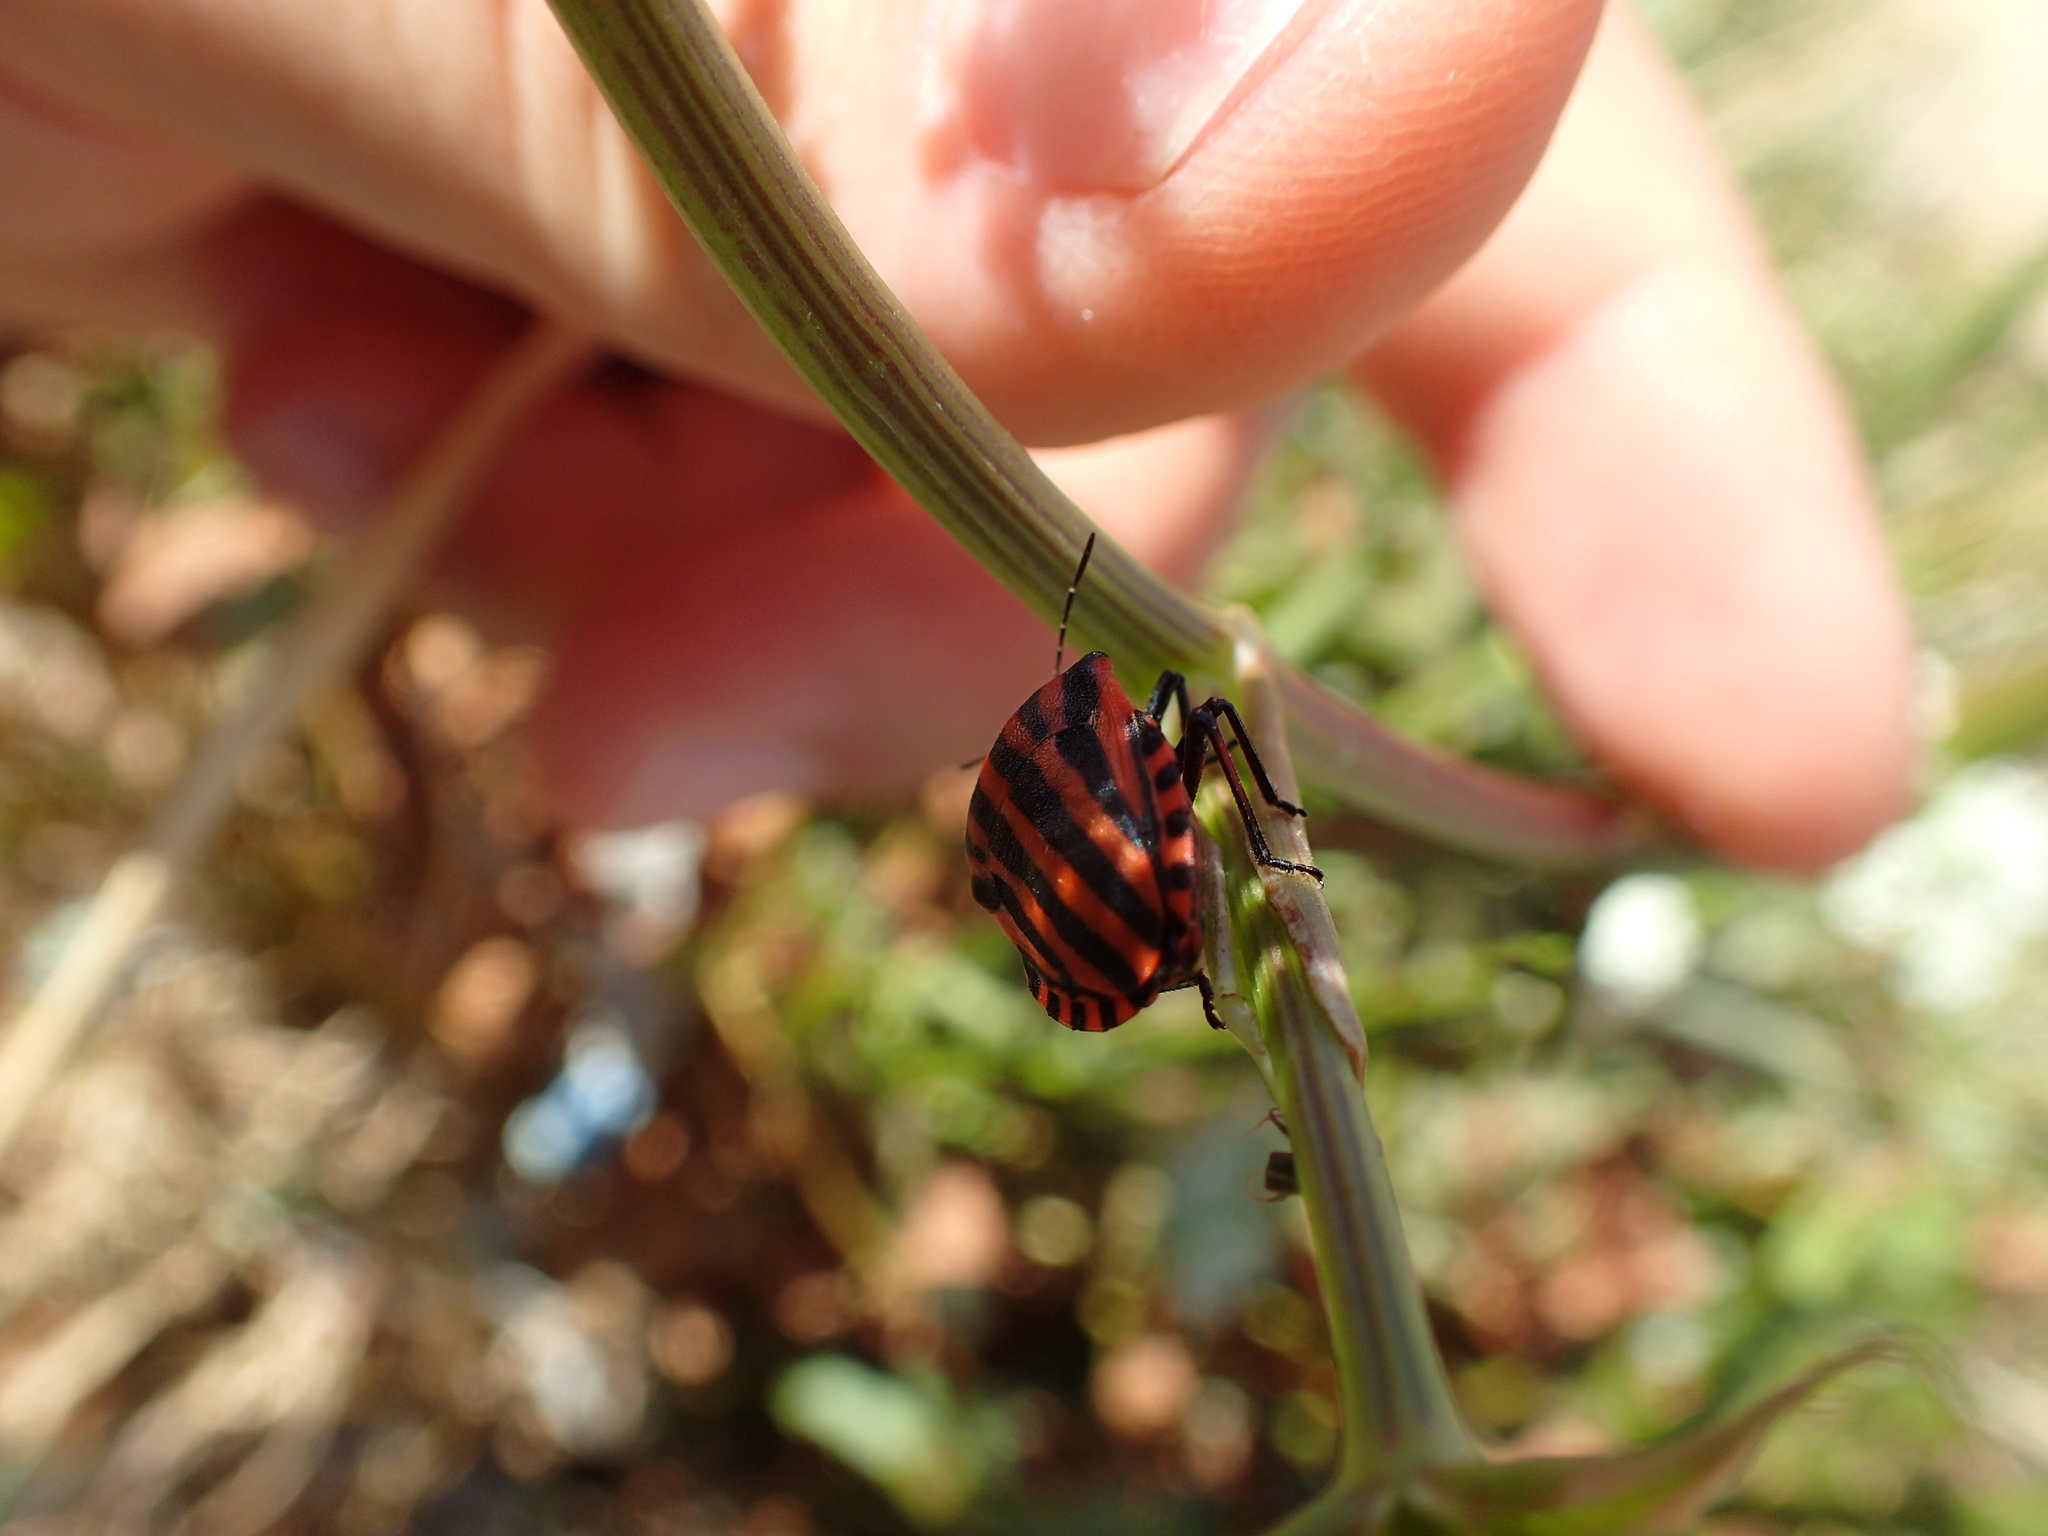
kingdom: Animalia
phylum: Arthropoda
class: Insecta
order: Hemiptera
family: Pentatomidae
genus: Graphosoma
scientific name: Graphosoma italicum
